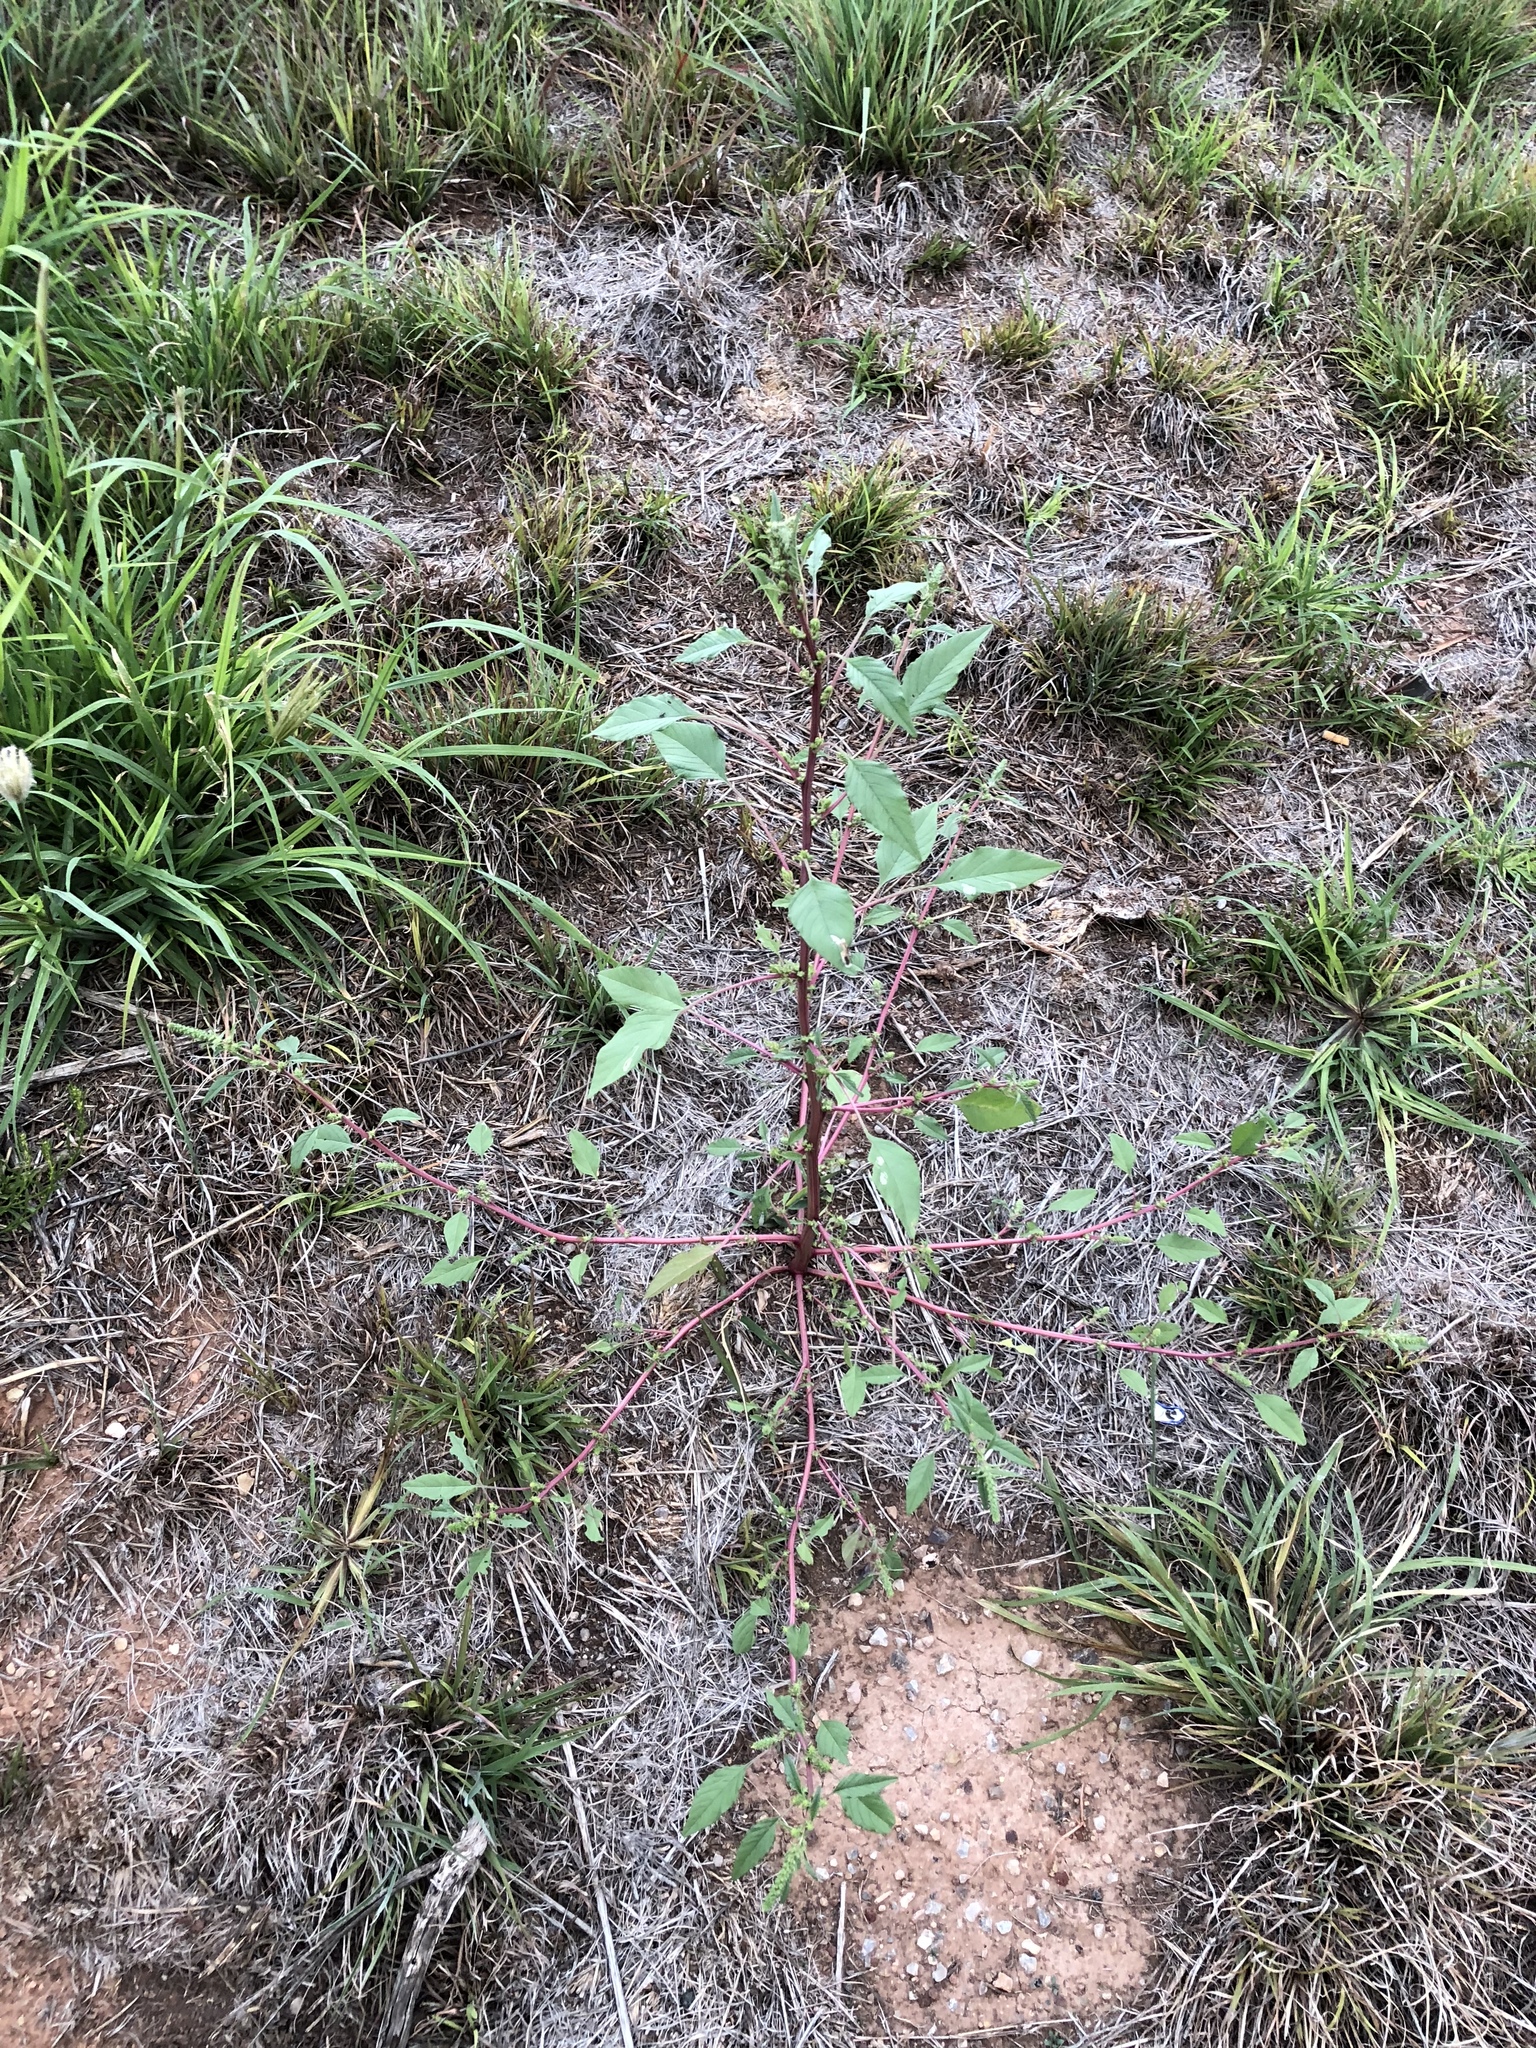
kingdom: Plantae
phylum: Tracheophyta
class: Magnoliopsida
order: Caryophyllales
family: Amaranthaceae
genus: Amaranthus
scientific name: Amaranthus palmeri
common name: Dioecious amaranth
